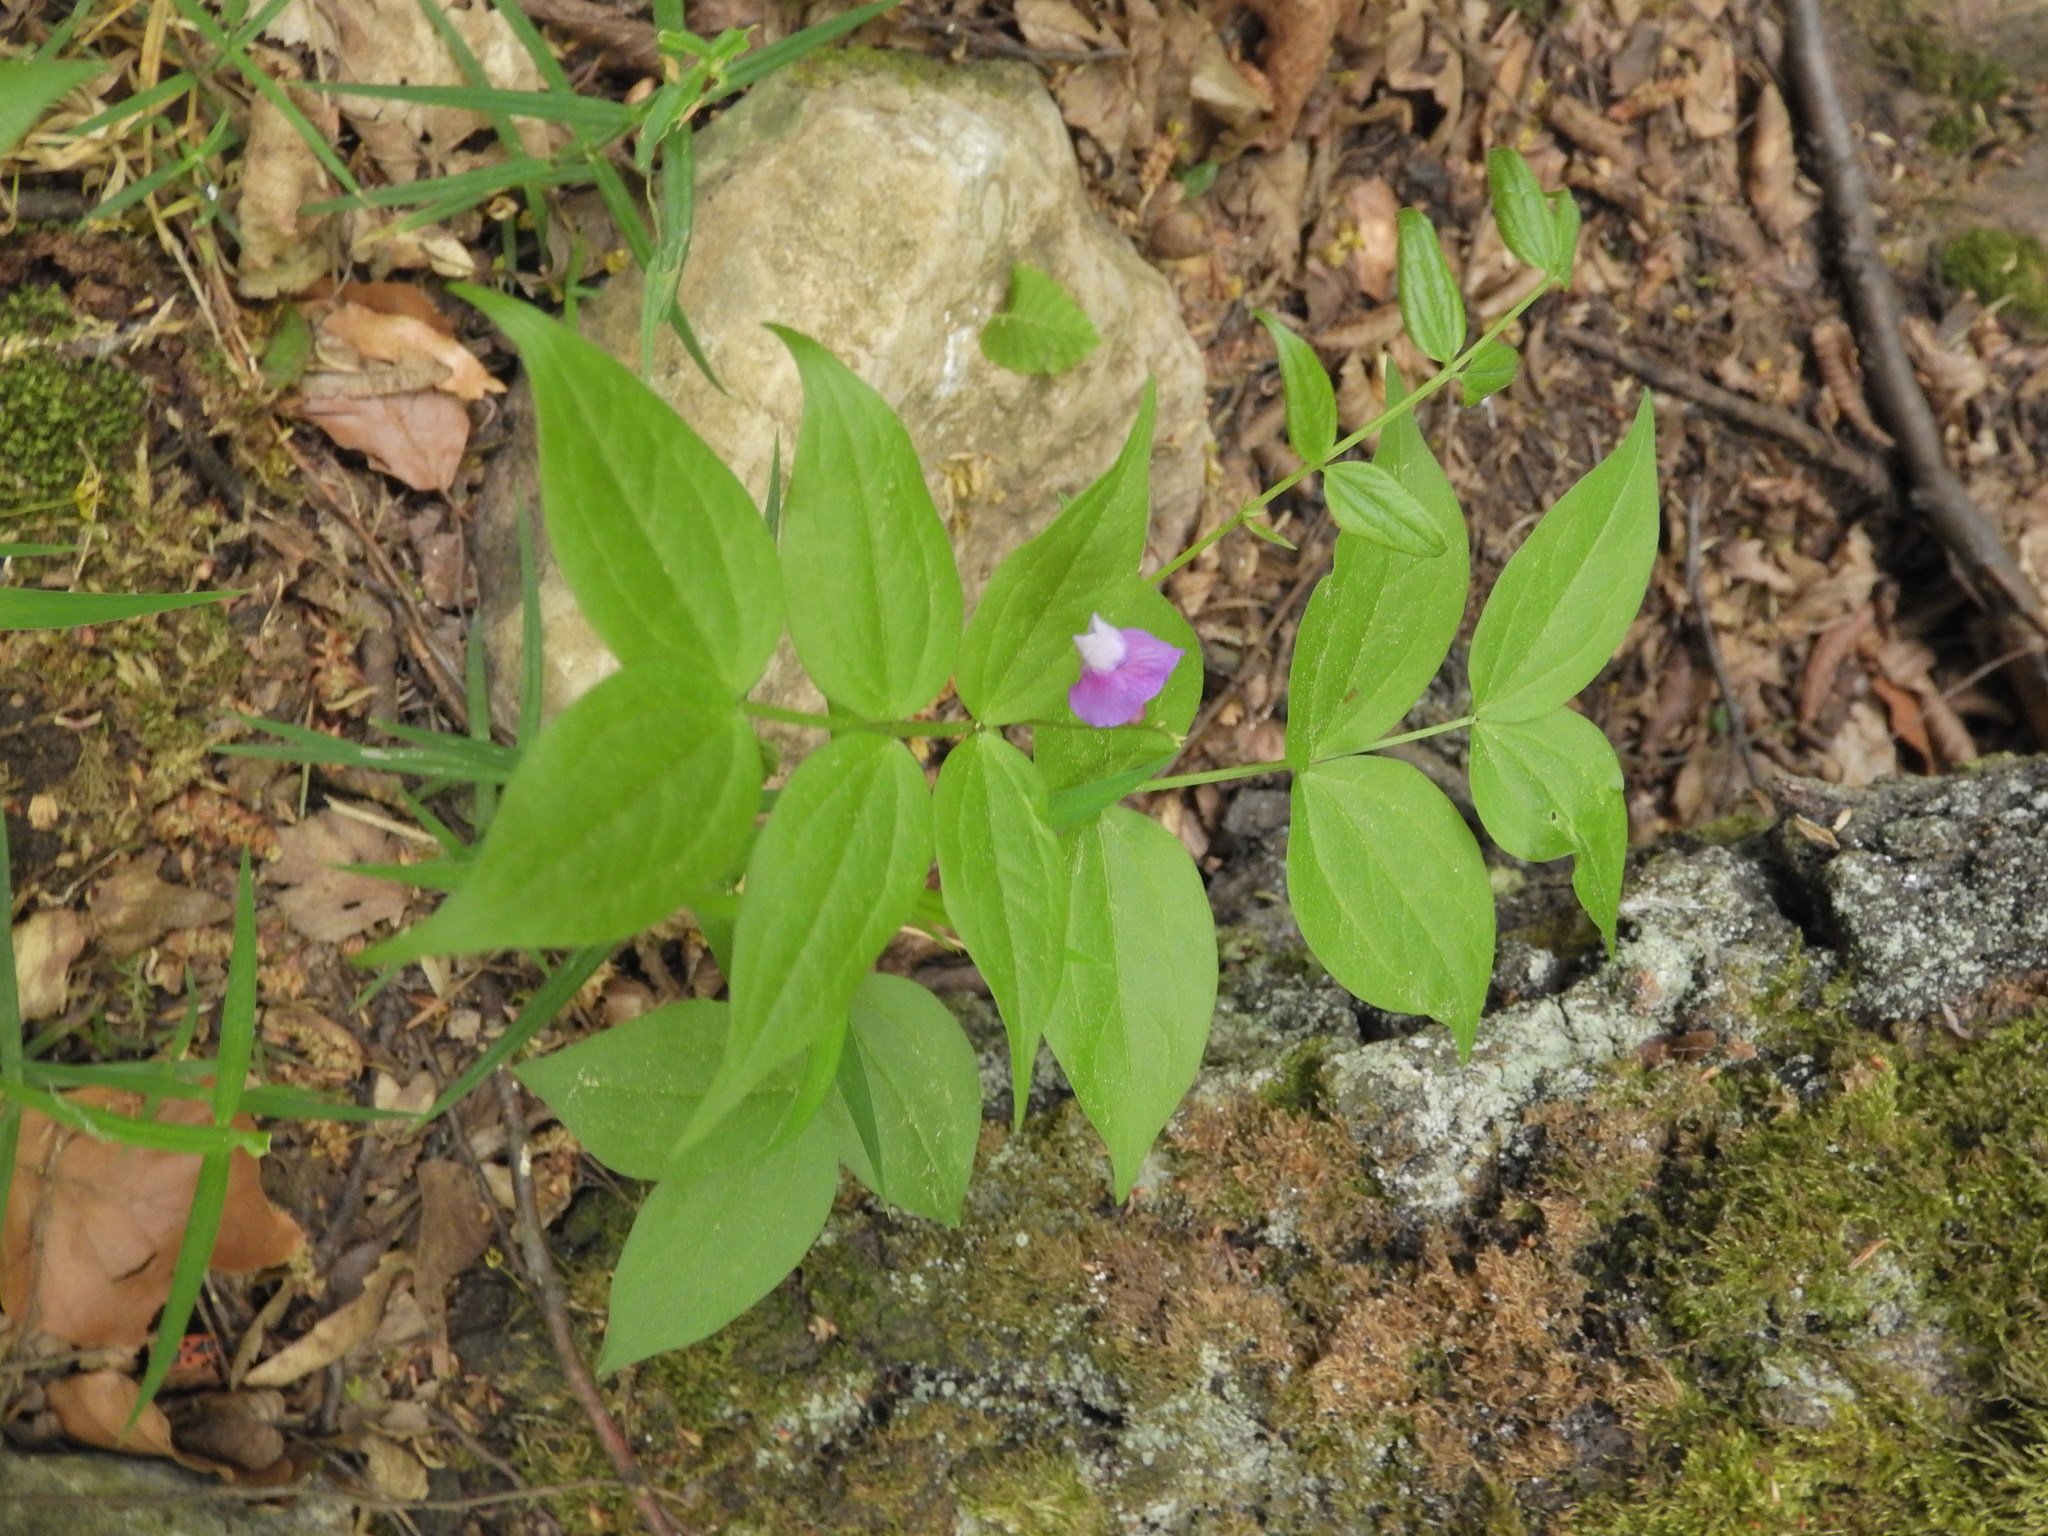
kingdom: Plantae
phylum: Tracheophyta
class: Magnoliopsida
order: Fabales
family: Fabaceae
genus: Lathyrus
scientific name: Lathyrus vernus
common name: Spring pea
